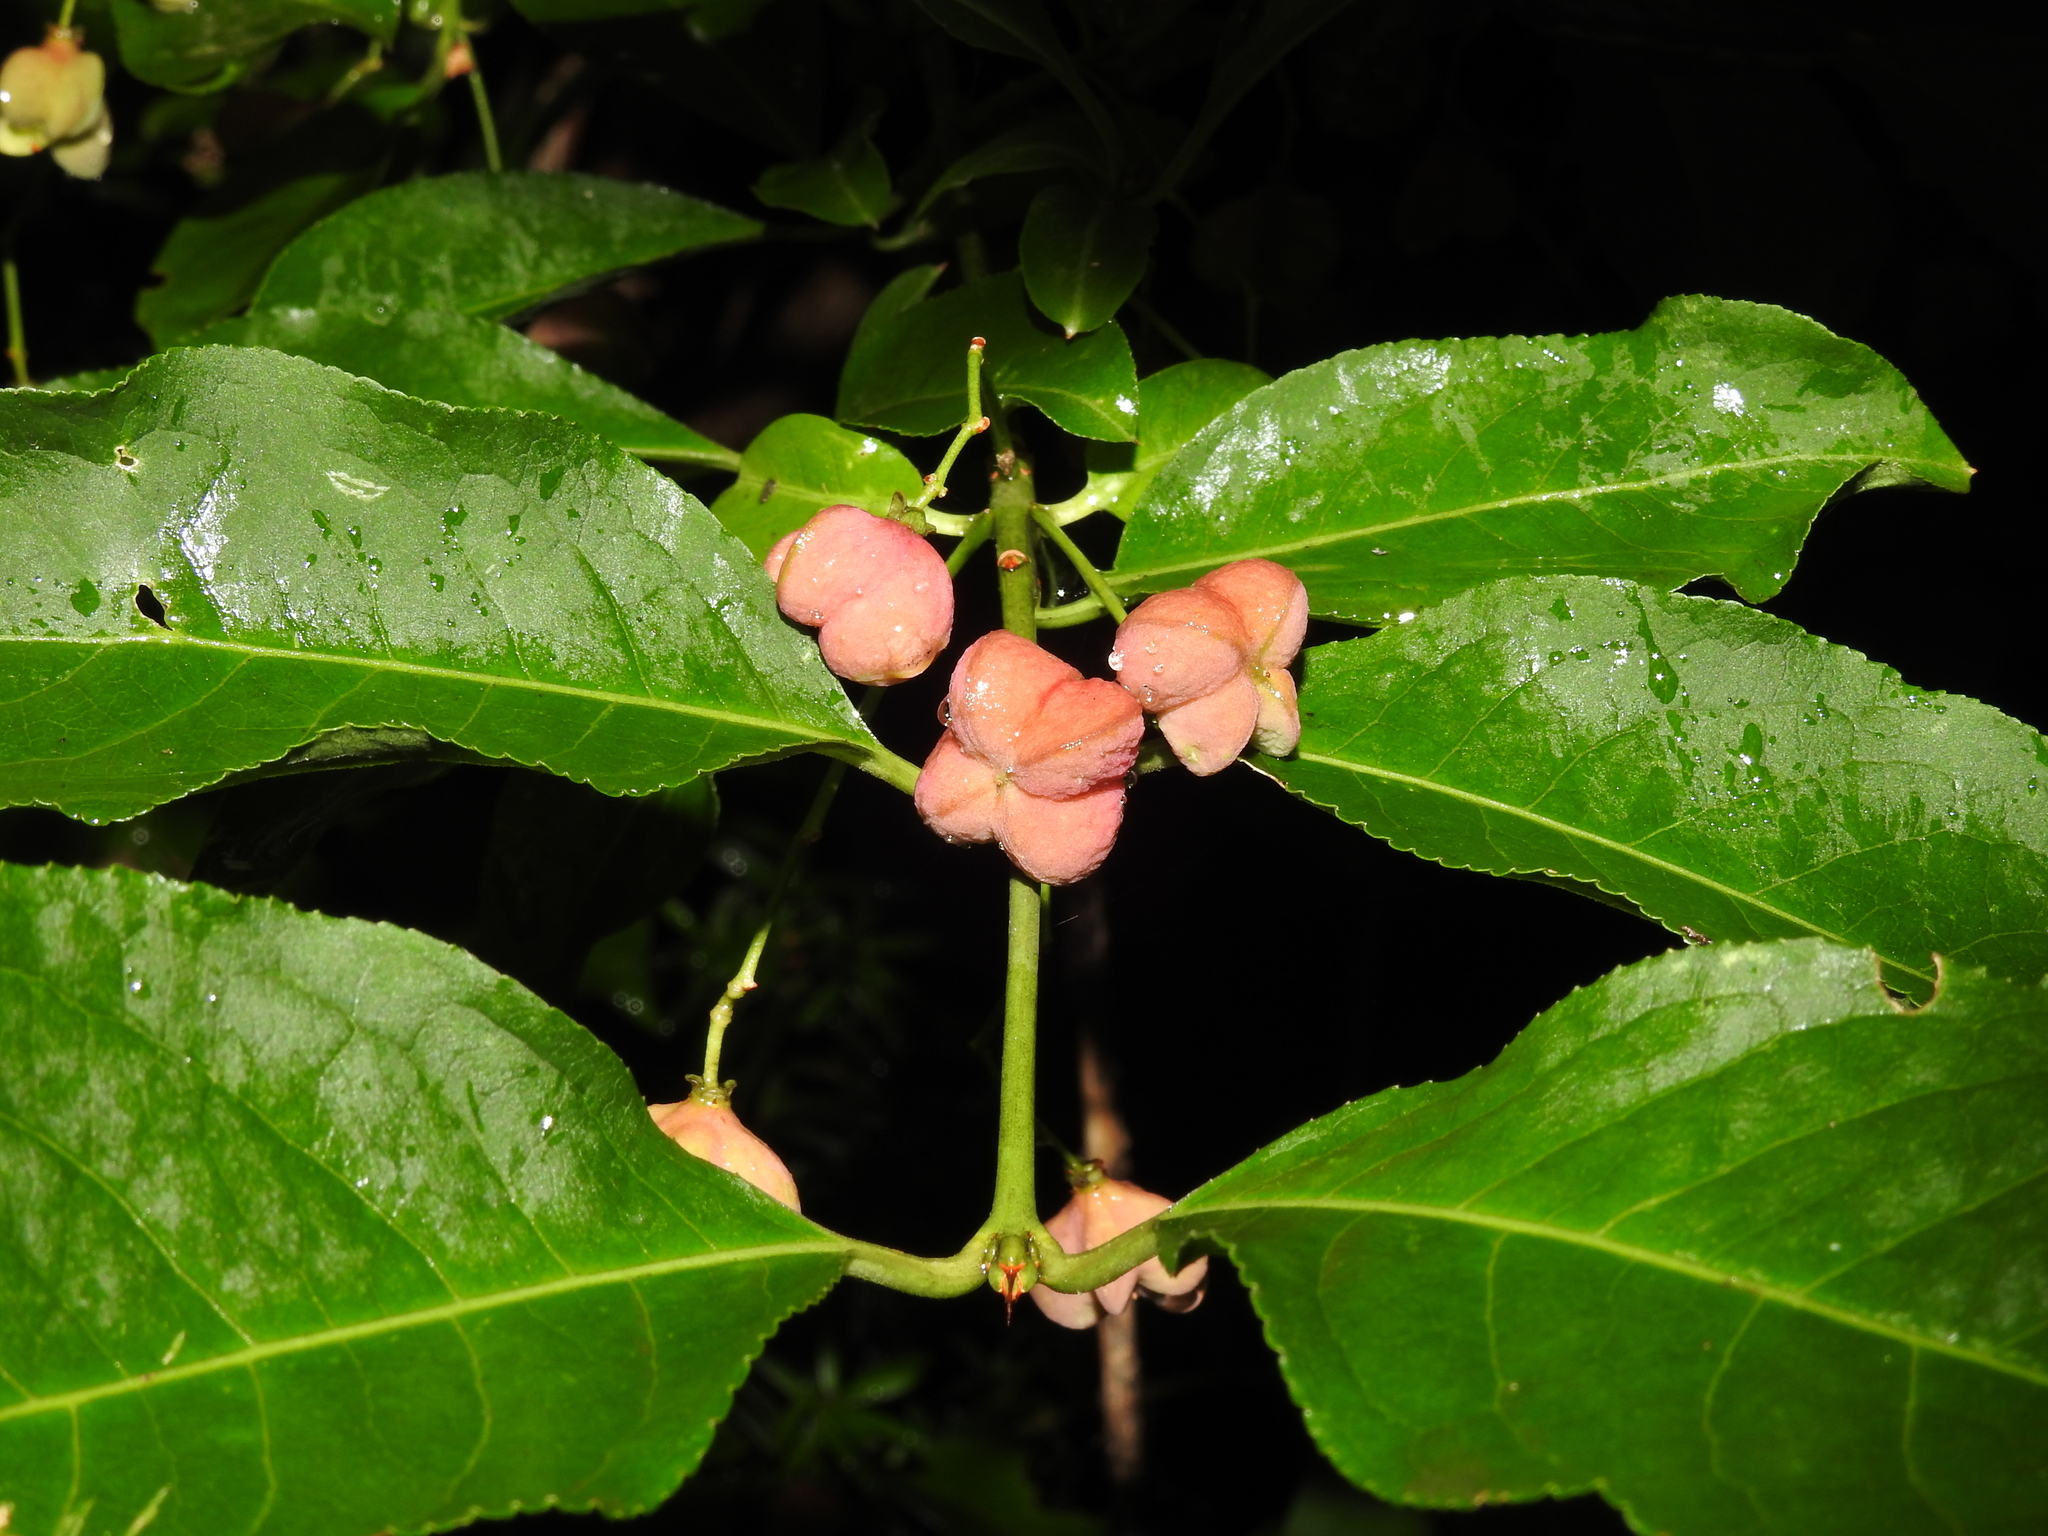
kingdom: Plantae
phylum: Tracheophyta
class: Magnoliopsida
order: Celastrales
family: Celastraceae
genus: Euonymus
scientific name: Euonymus europaeus
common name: Spindle
